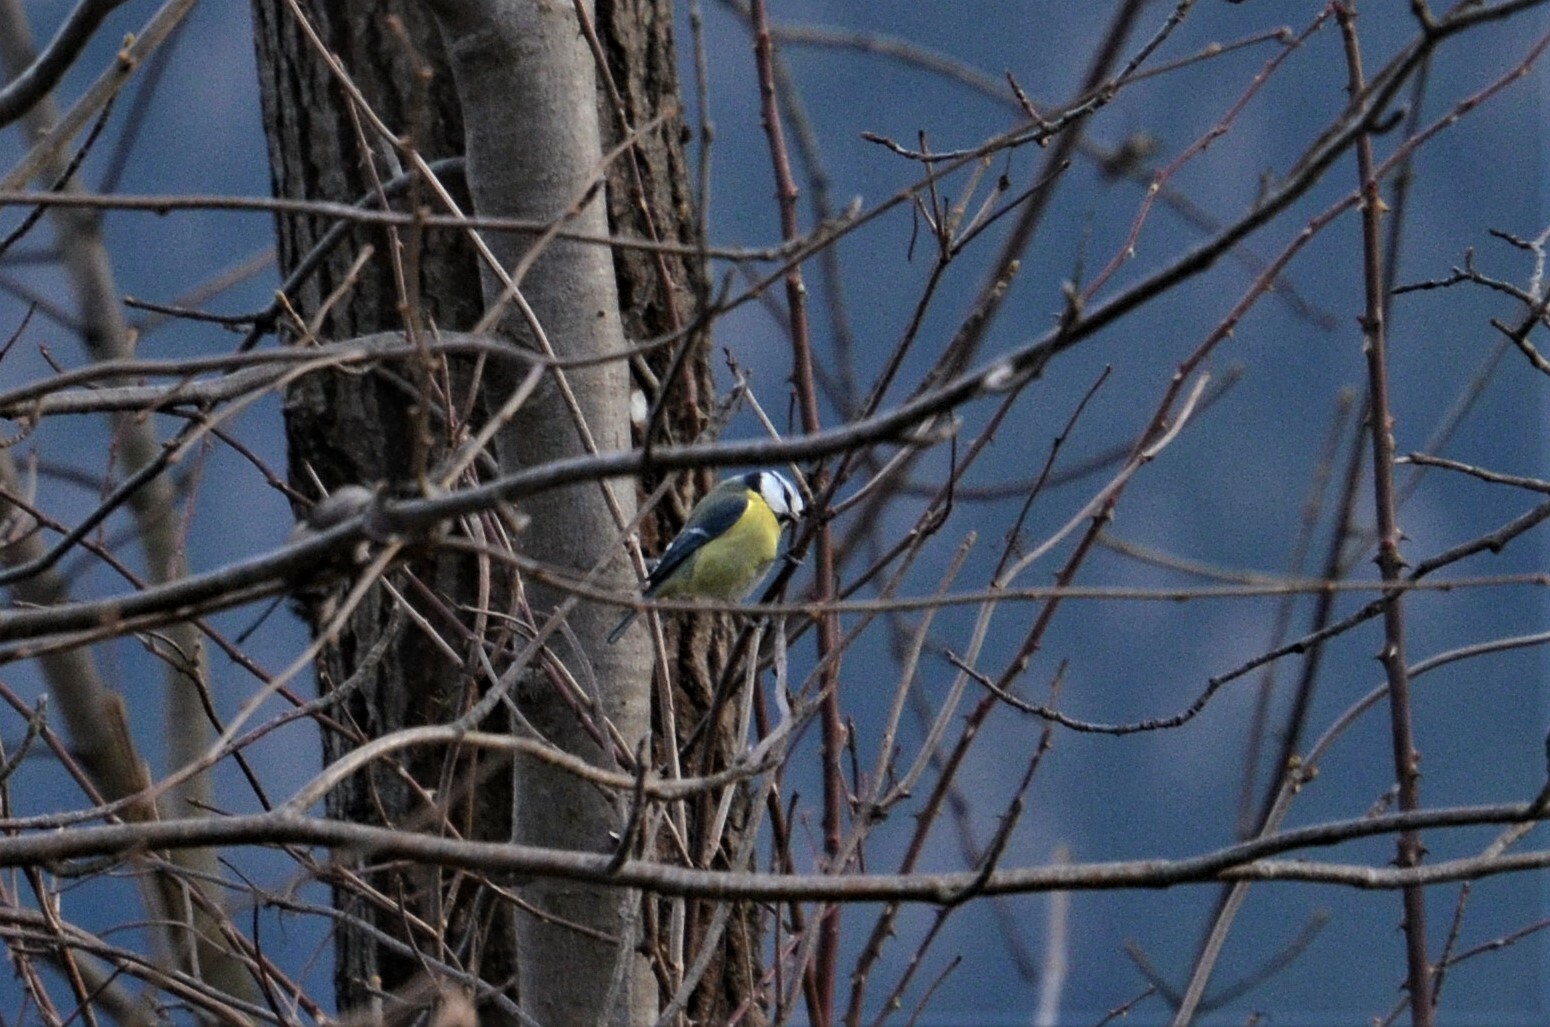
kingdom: Animalia
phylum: Chordata
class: Aves
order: Passeriformes
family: Paridae
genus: Cyanistes
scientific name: Cyanistes caeruleus
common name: Eurasian blue tit
